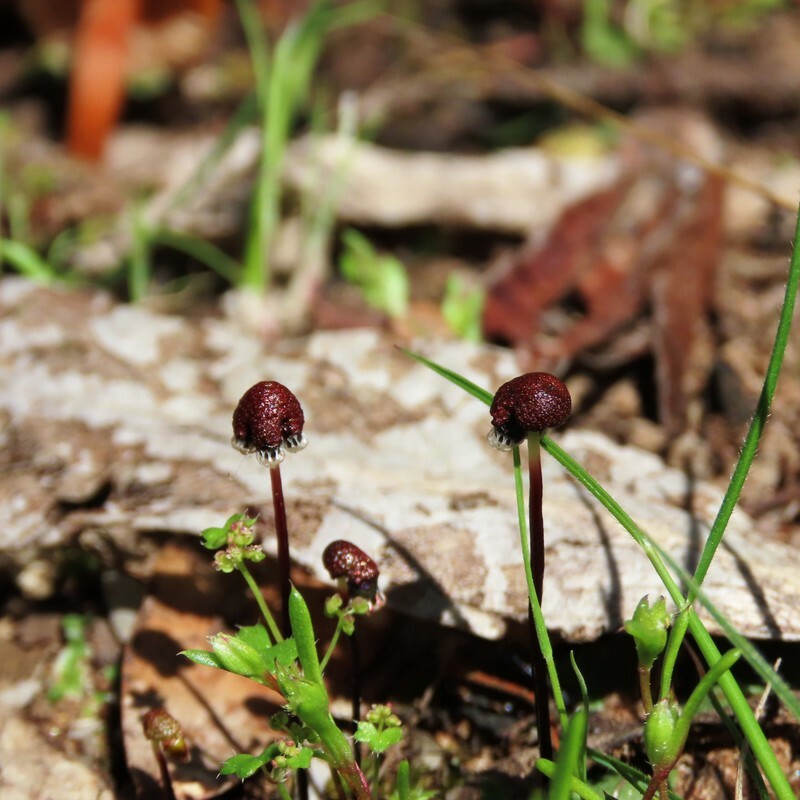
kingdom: Plantae
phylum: Marchantiophyta
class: Marchantiopsida
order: Marchantiales
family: Aytoniaceae
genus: Asterella
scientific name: Asterella drummondii
